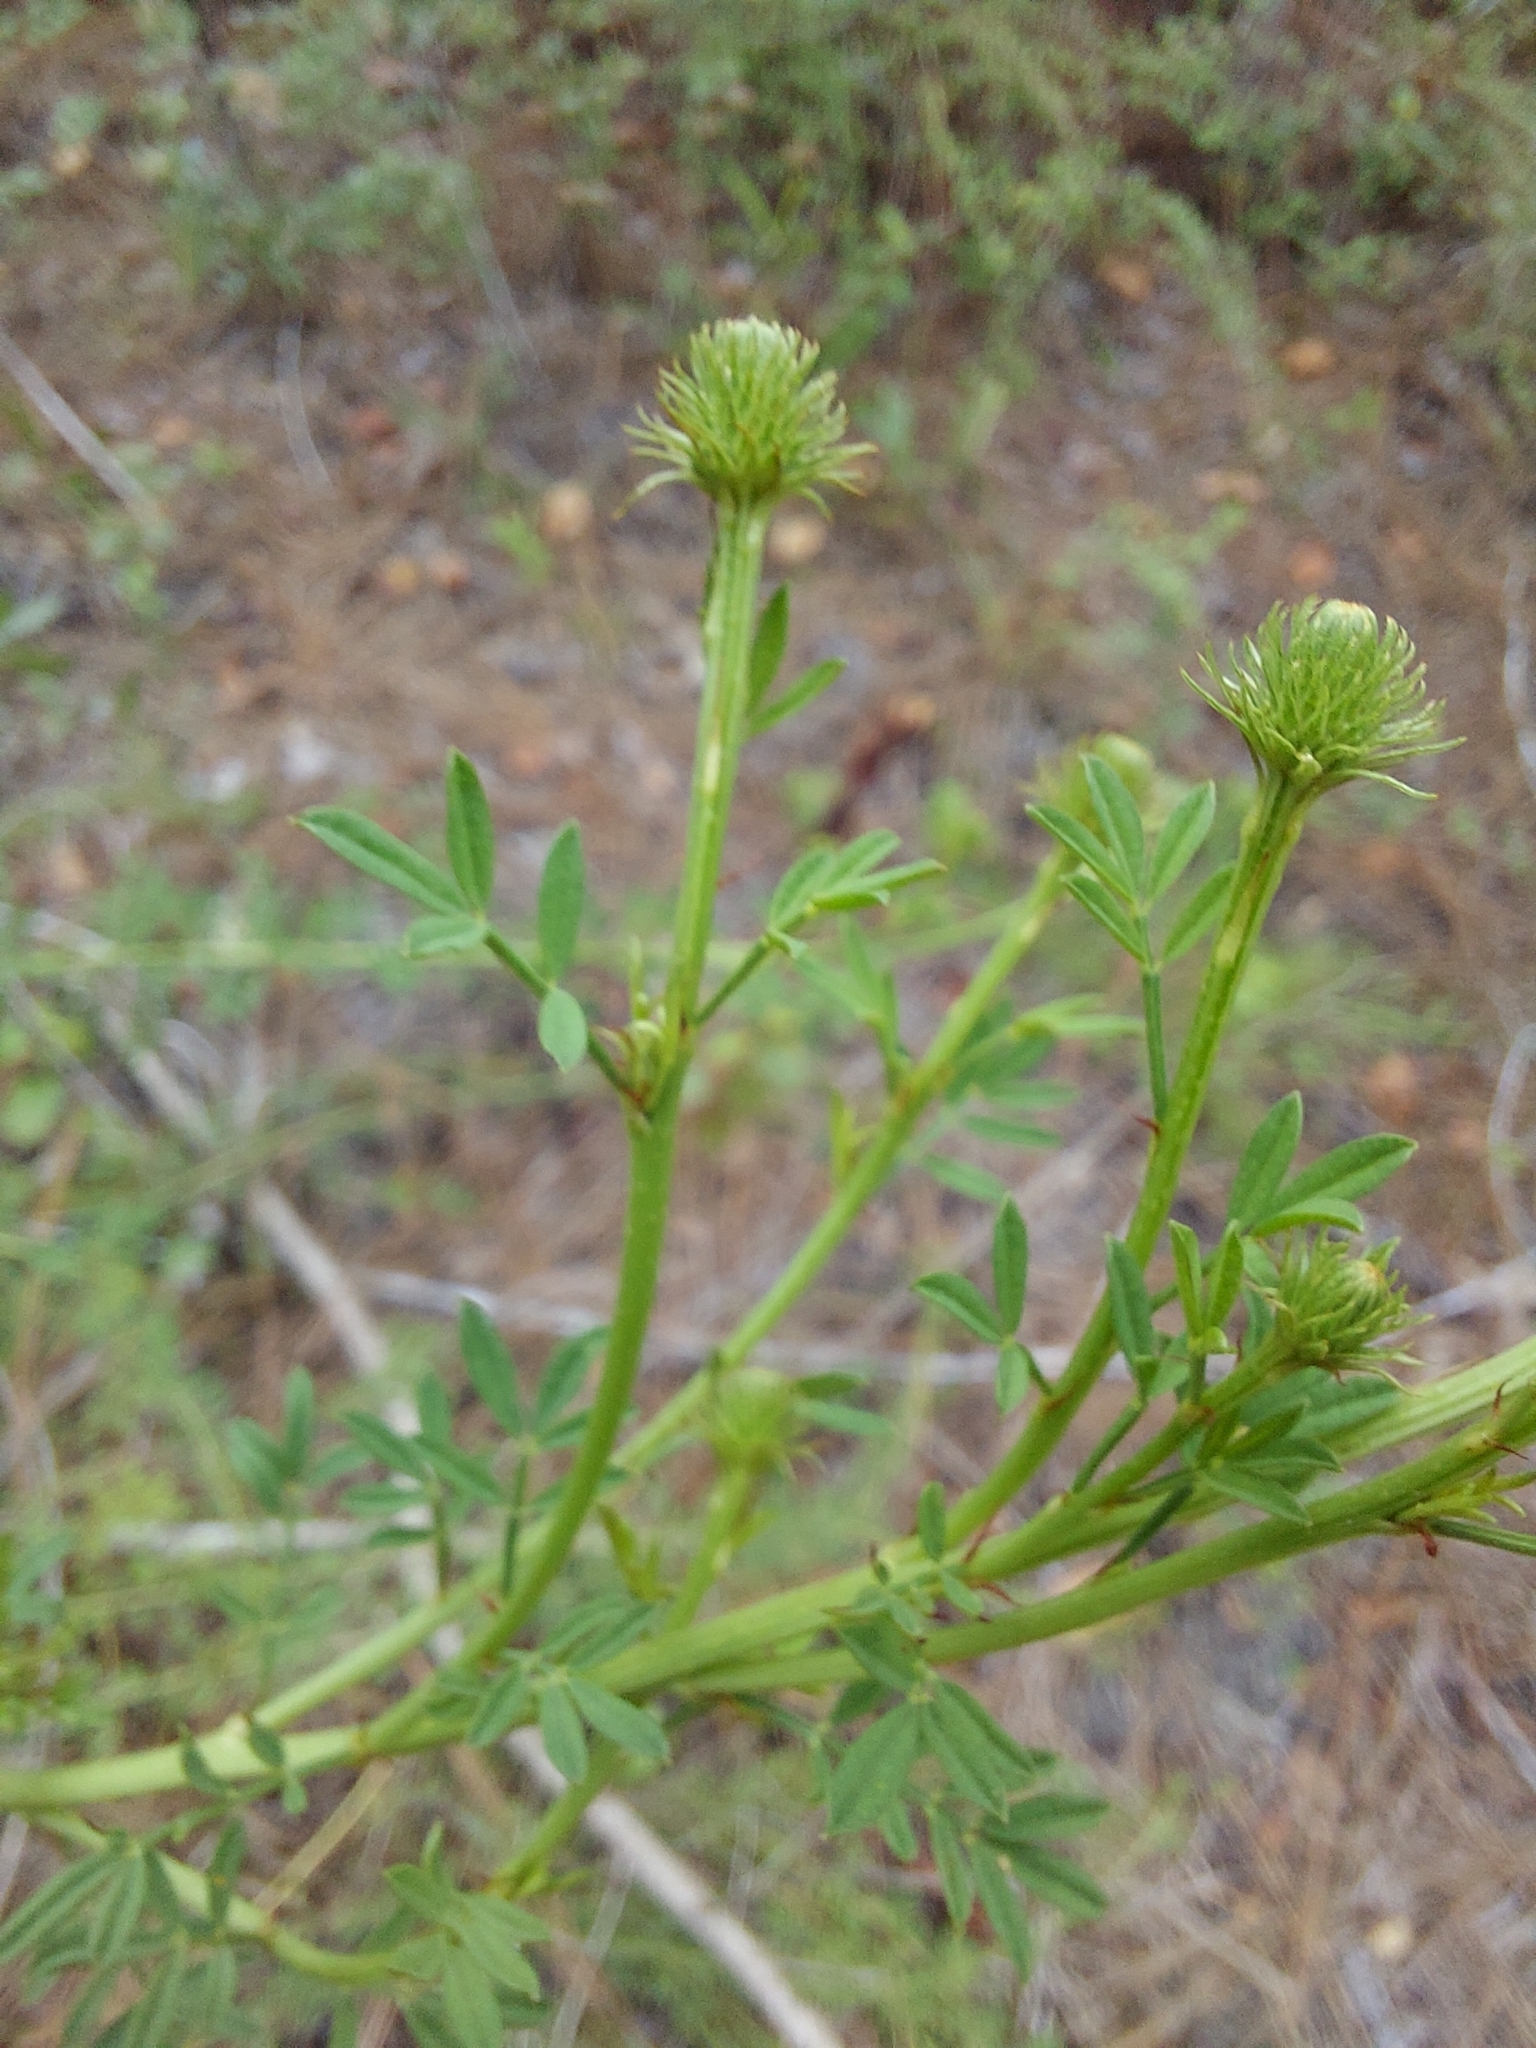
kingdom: Plantae
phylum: Tracheophyta
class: Magnoliopsida
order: Fabales
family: Fabaceae
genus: Dalea
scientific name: Dalea carnea
